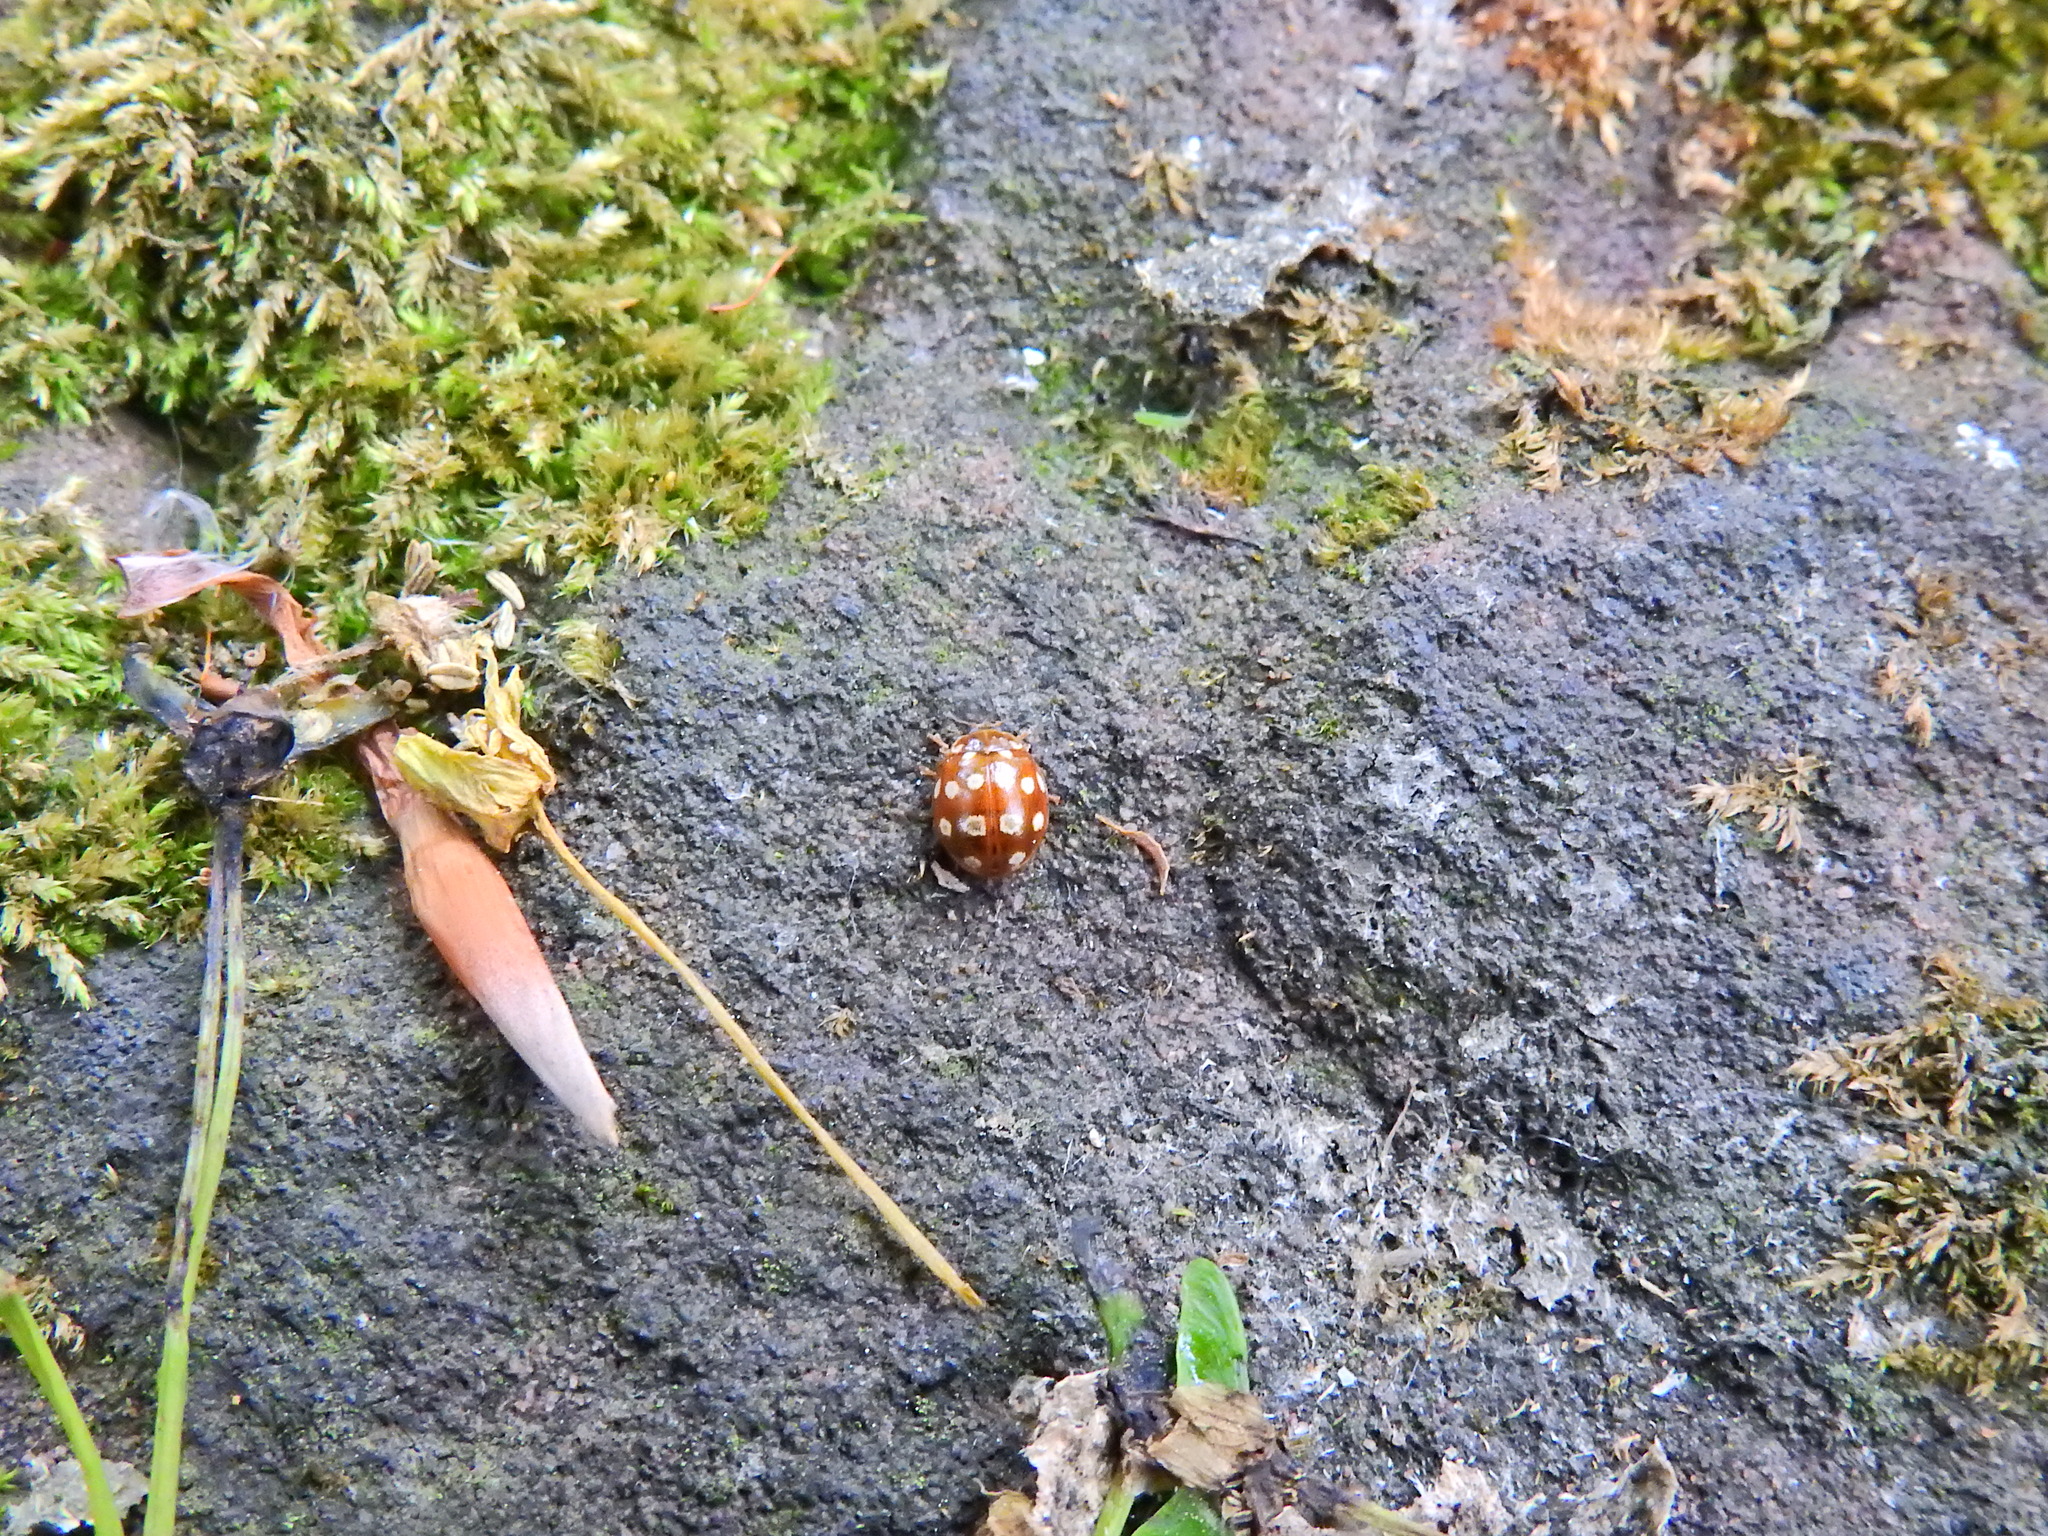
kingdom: Animalia
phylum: Arthropoda
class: Insecta
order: Coleoptera
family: Coccinellidae
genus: Calvia
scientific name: Calvia quatuordecimguttata
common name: Cream-spot ladybird
